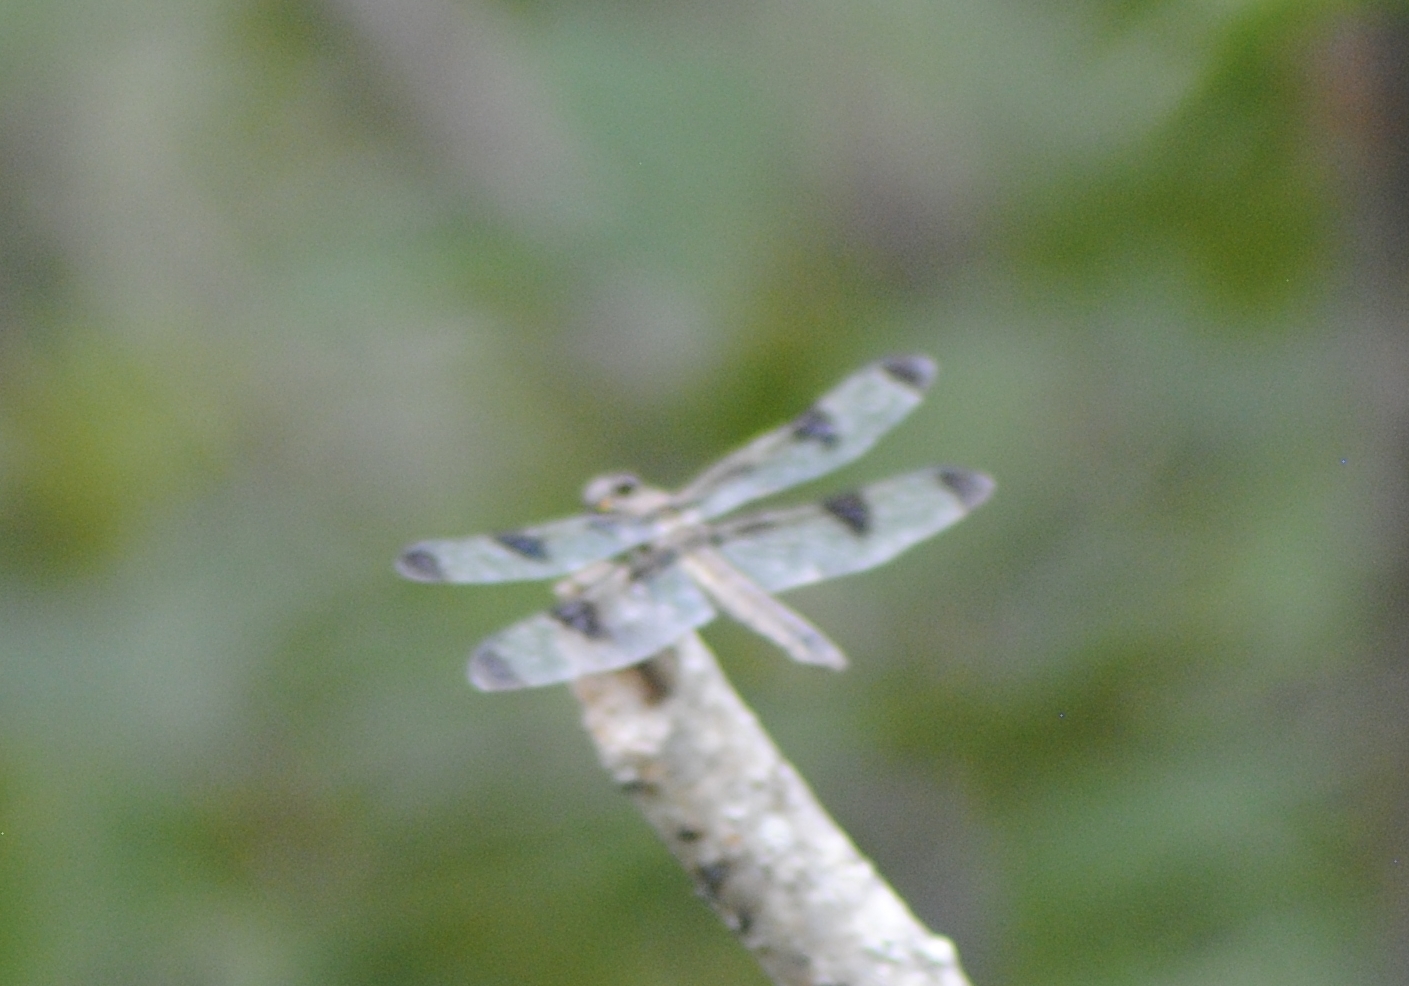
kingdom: Animalia
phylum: Arthropoda
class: Insecta
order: Odonata
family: Libellulidae
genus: Libellula
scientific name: Libellula pulchella
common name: Twelve-spotted skimmer
